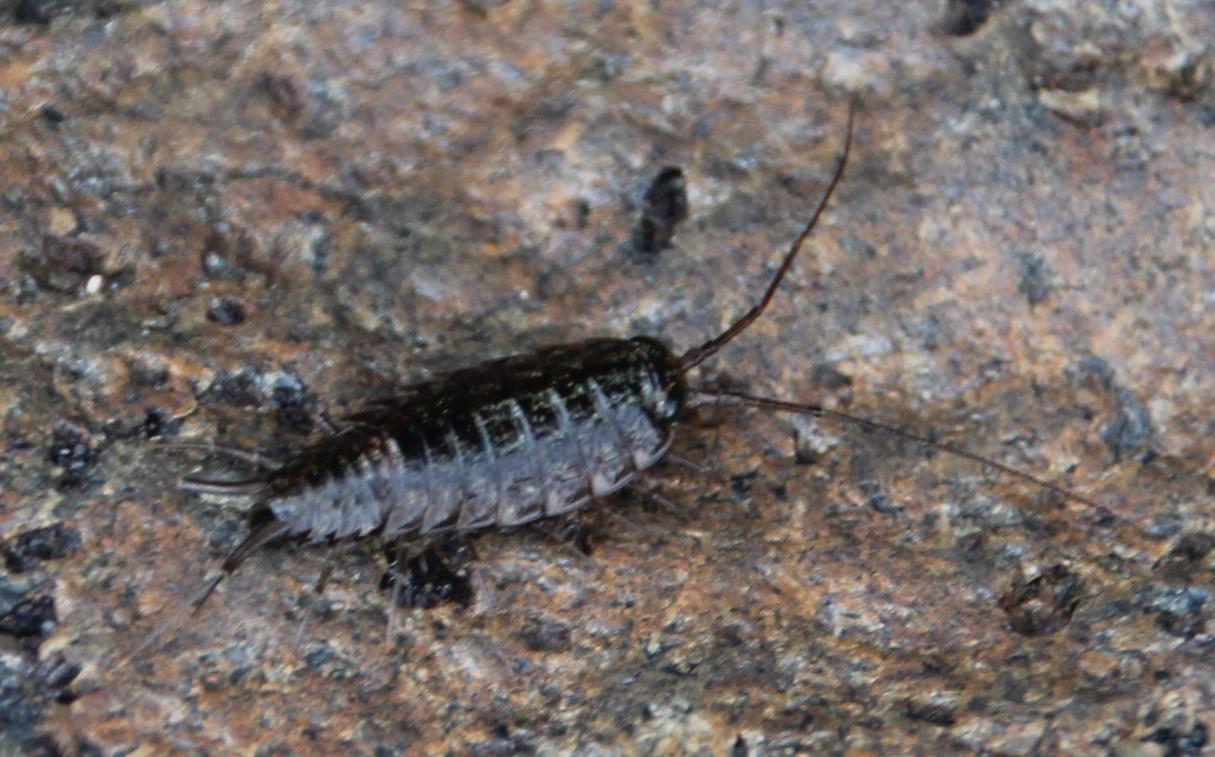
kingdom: Animalia
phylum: Arthropoda
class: Malacostraca
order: Isopoda
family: Ligiidae
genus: Ligia
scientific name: Ligia natalensis
